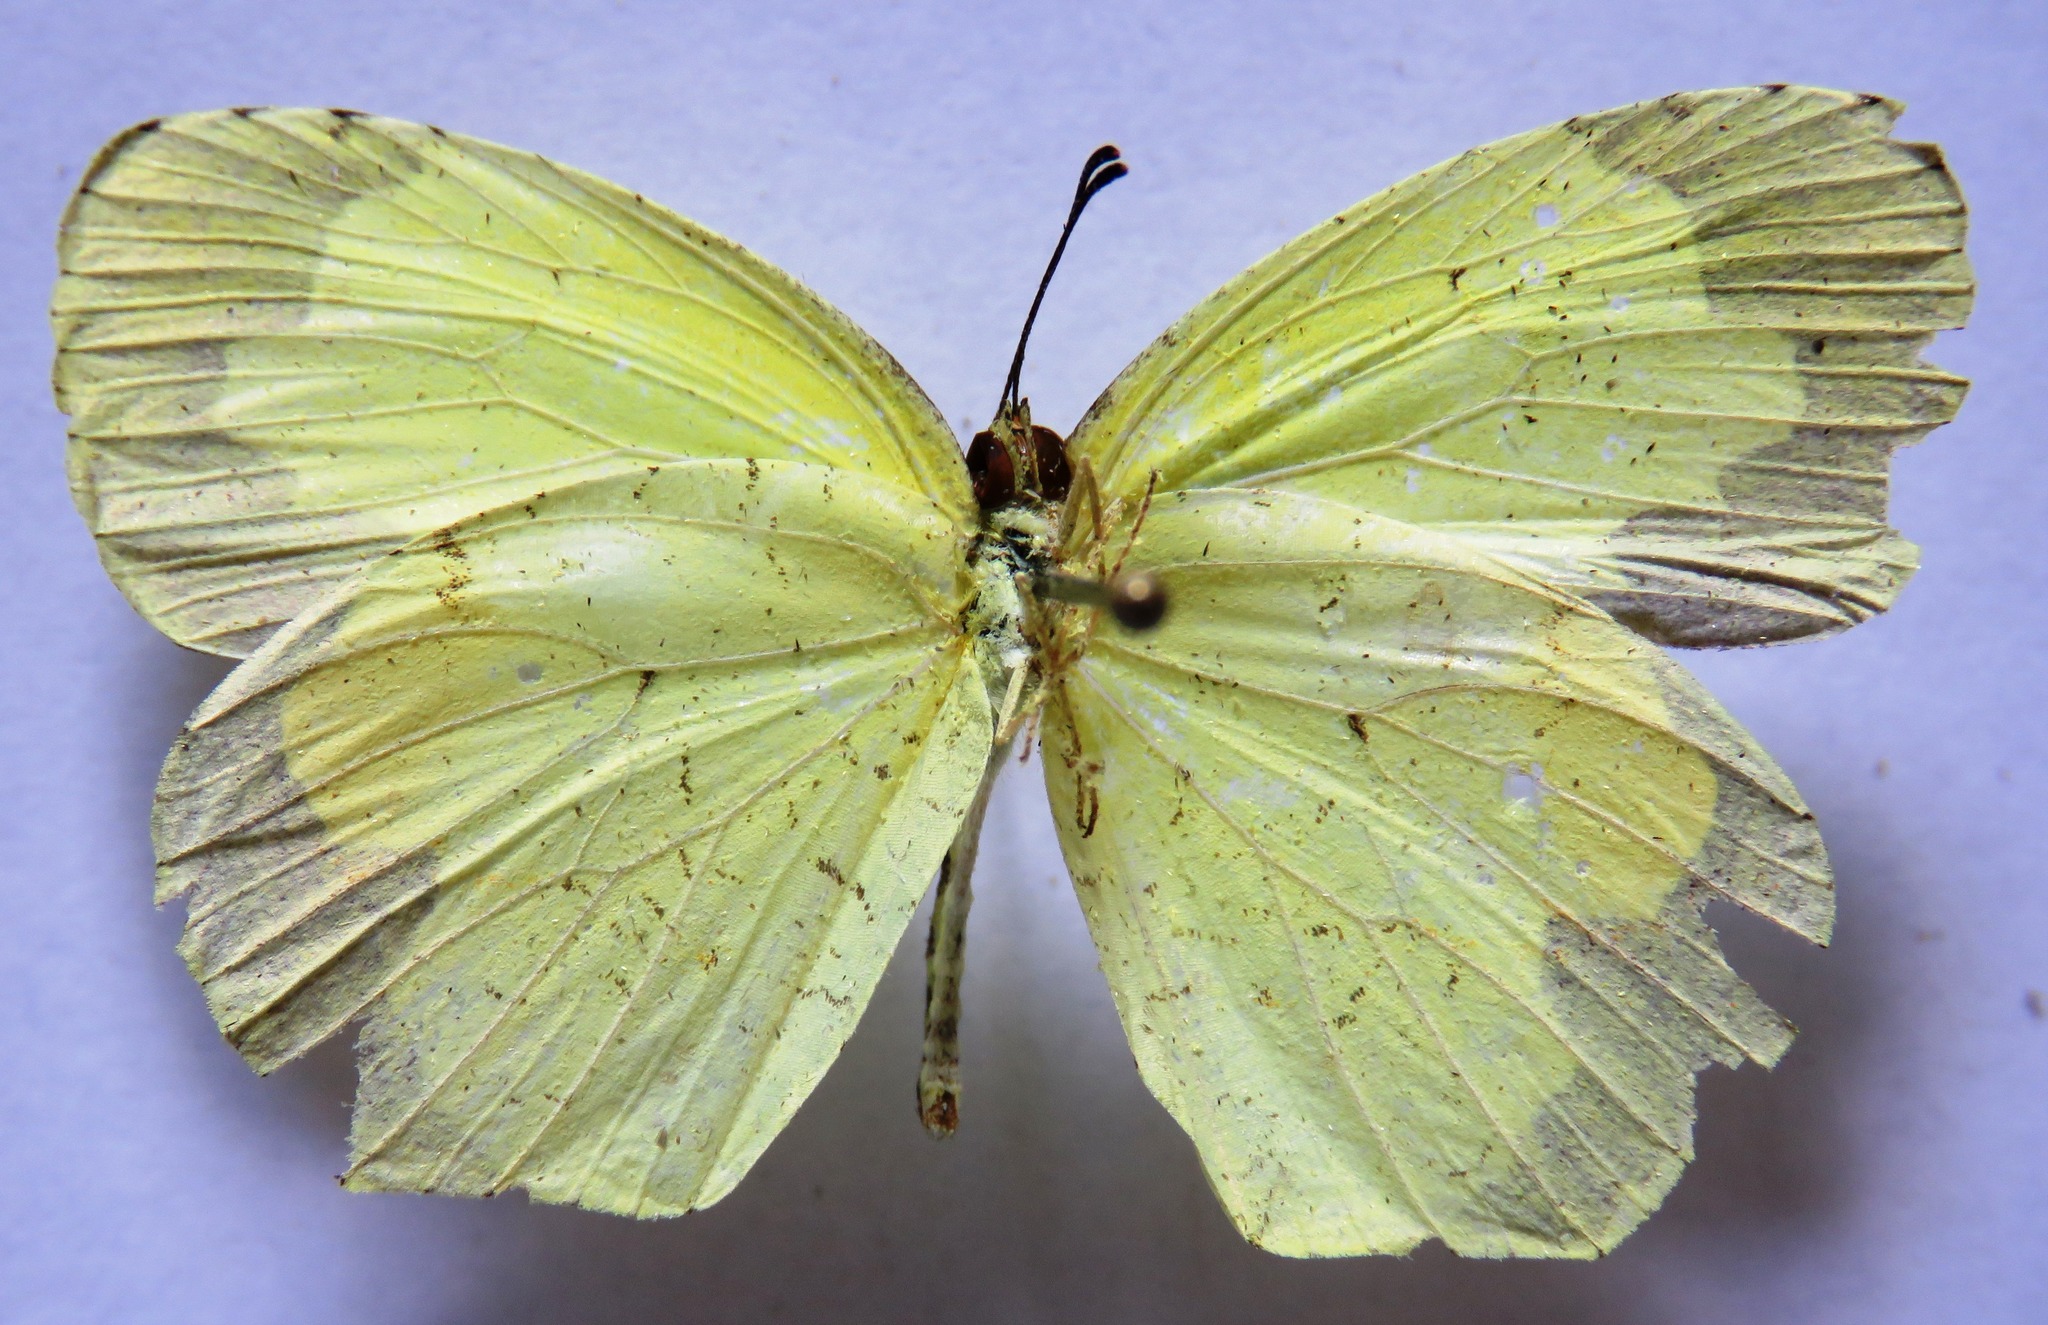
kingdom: Animalia
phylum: Arthropoda
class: Insecta
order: Lepidoptera
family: Pieridae
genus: Abaeis
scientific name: Abaeis boisduvaliana
